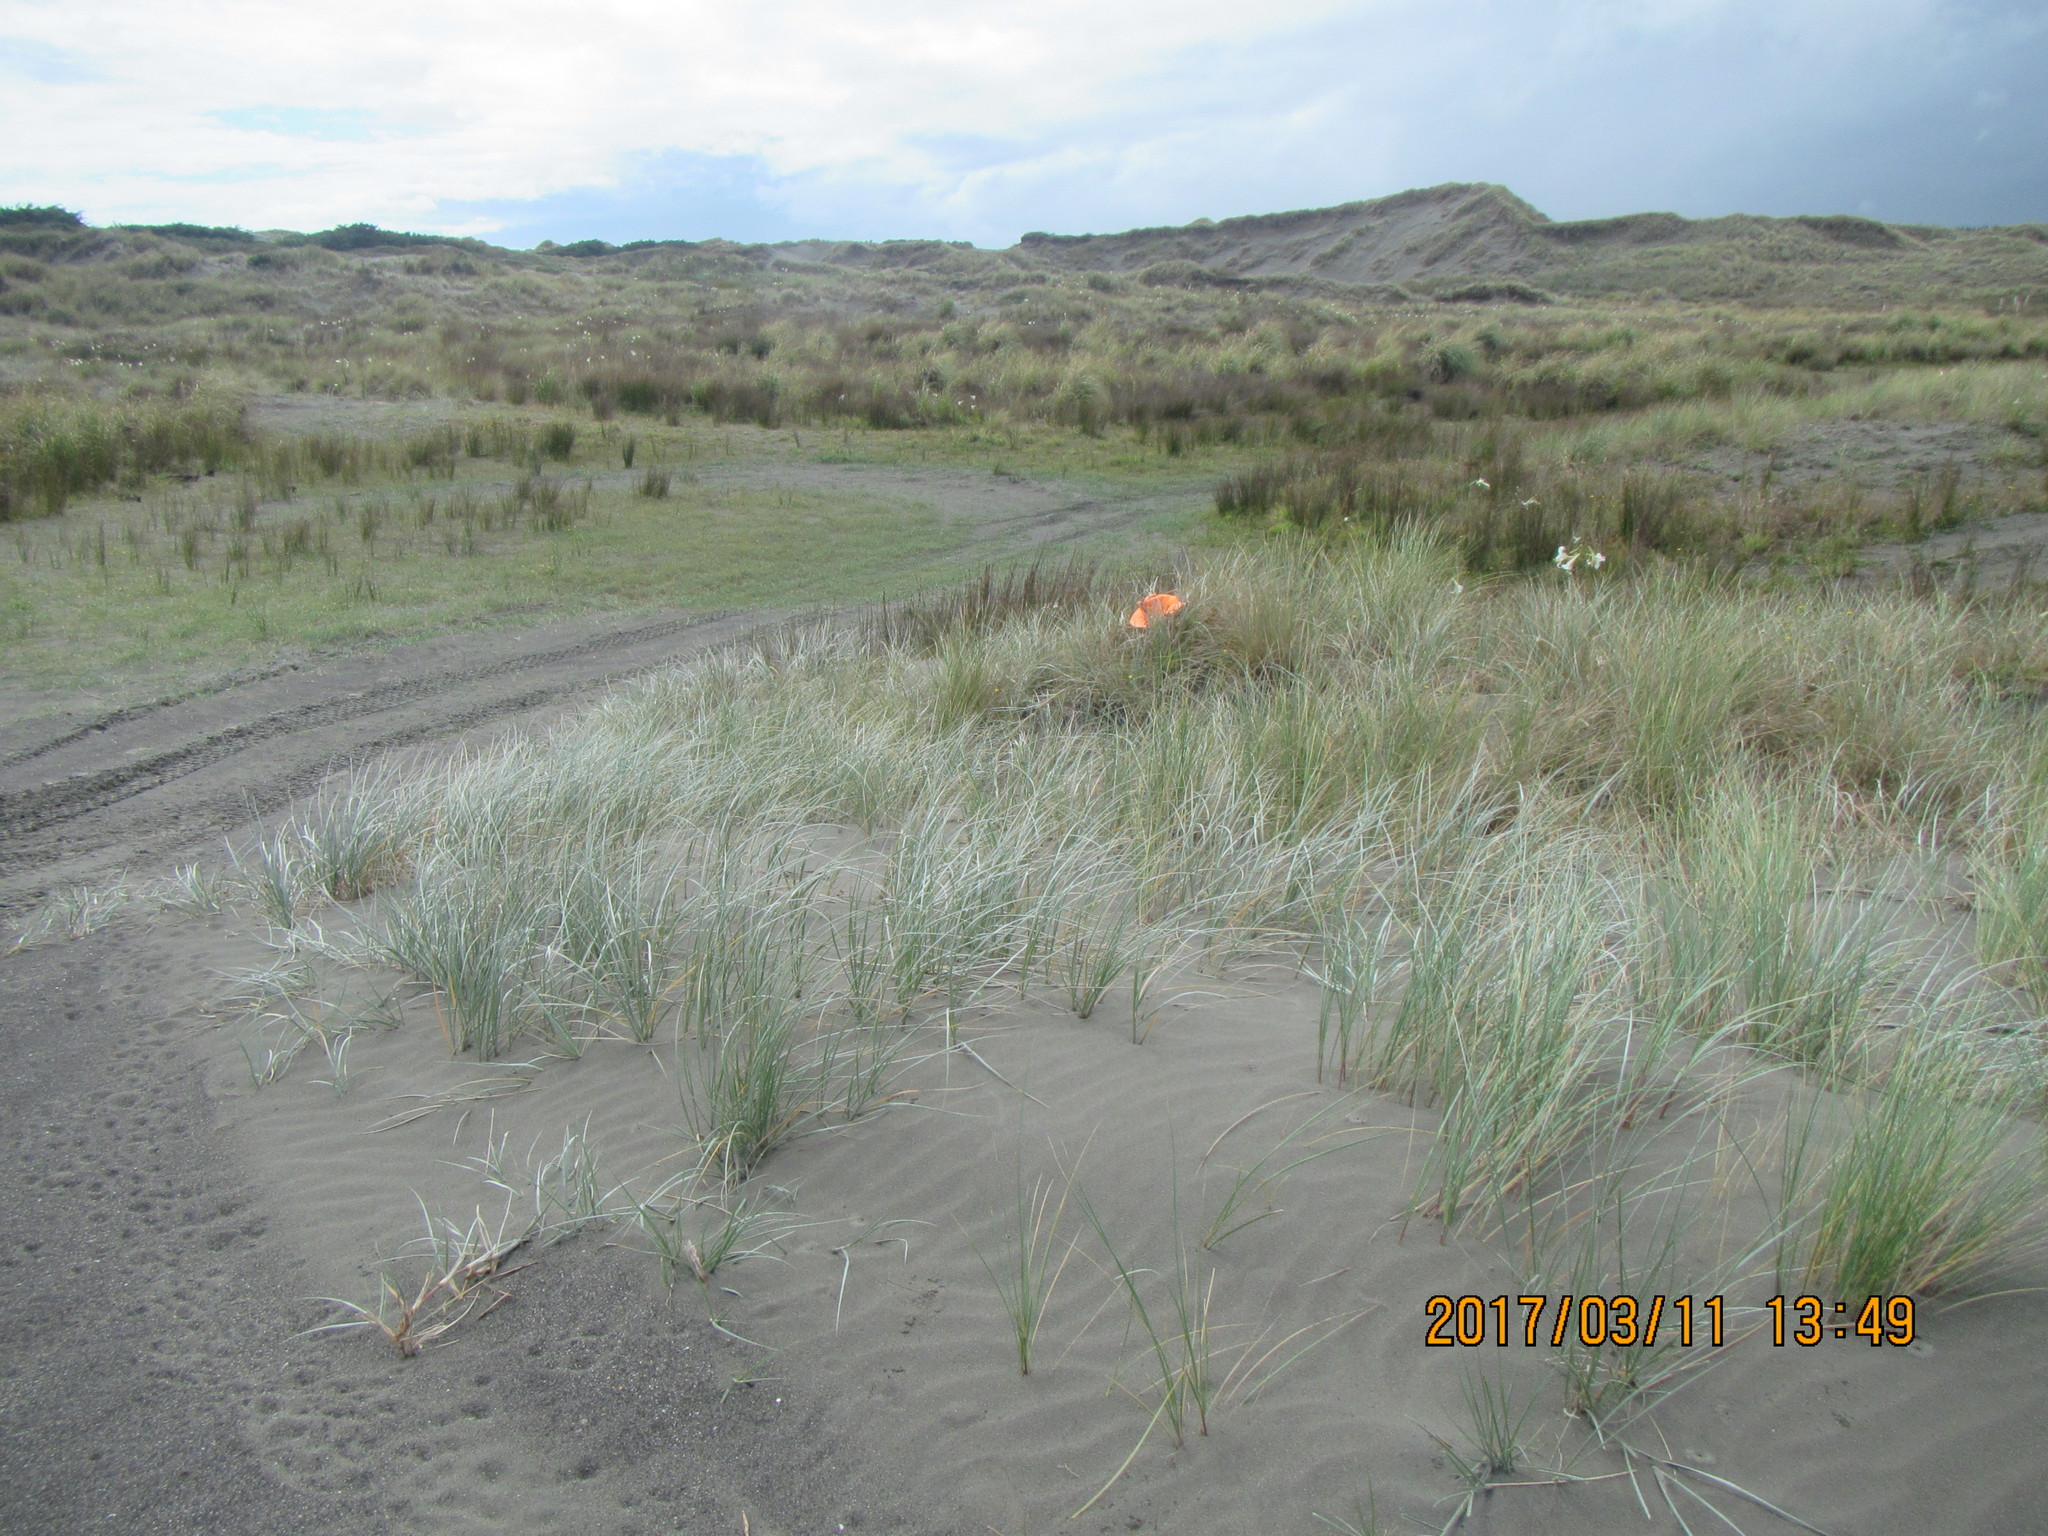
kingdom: Plantae
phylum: Tracheophyta
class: Liliopsida
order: Poales
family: Poaceae
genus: Spinifex
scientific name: Spinifex sericeus
